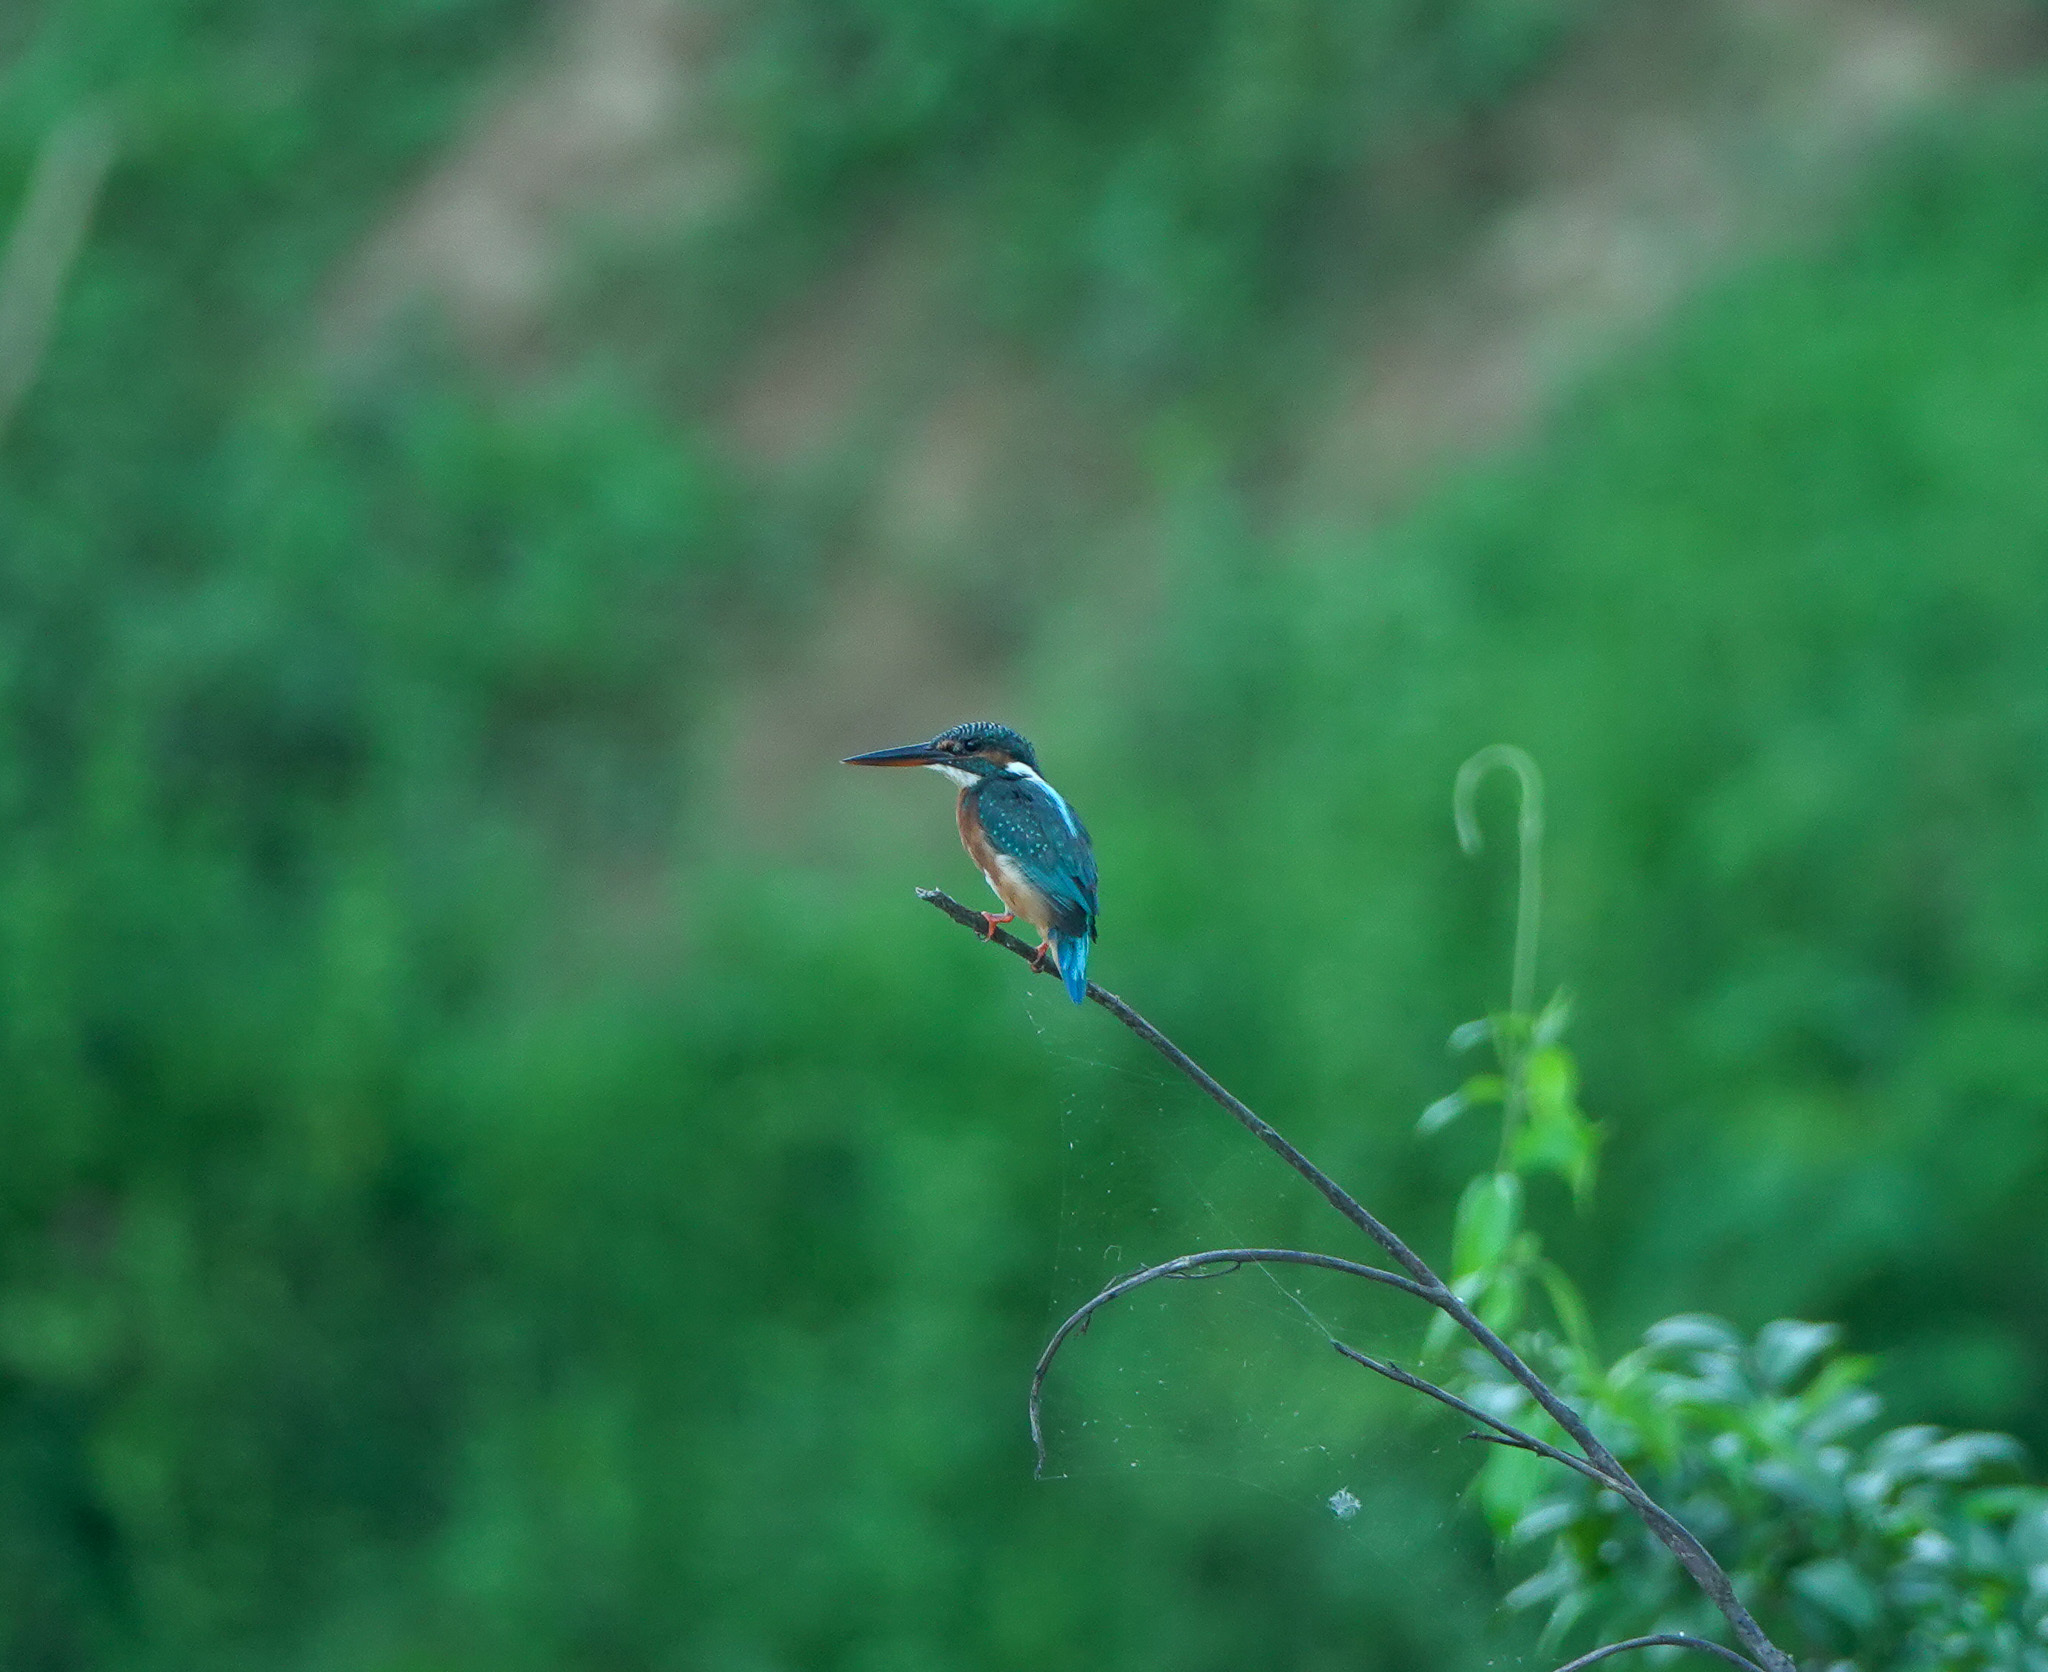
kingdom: Animalia
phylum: Chordata
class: Aves
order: Coraciiformes
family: Alcedinidae
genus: Alcedo
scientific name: Alcedo atthis
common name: Common kingfisher
